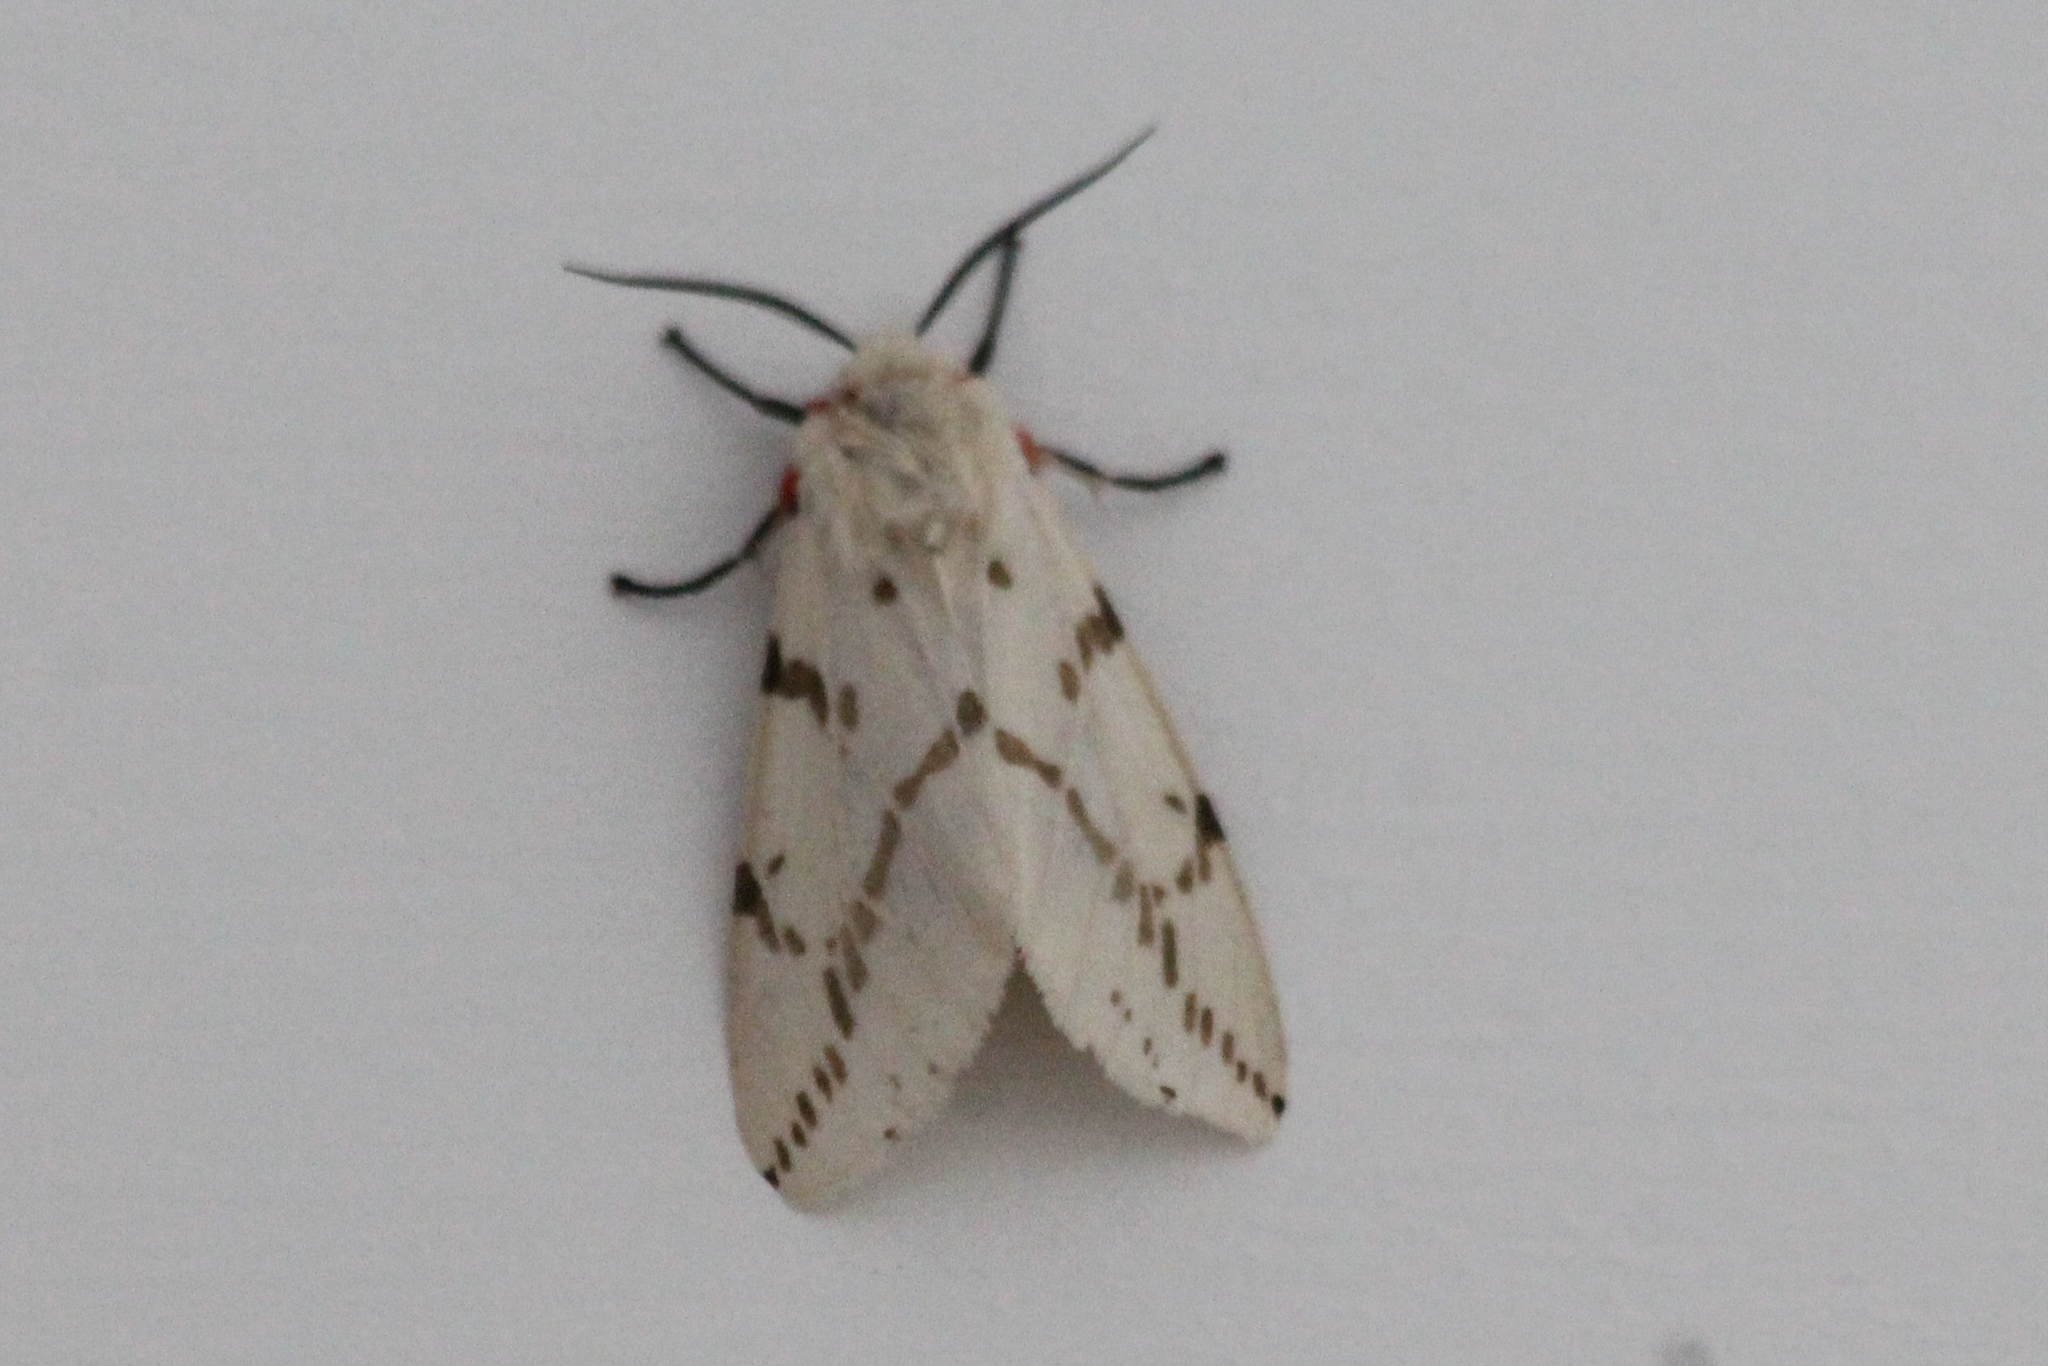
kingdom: Animalia
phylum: Arthropoda
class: Insecta
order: Lepidoptera
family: Erebidae
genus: Ardices
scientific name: Ardices canescens
